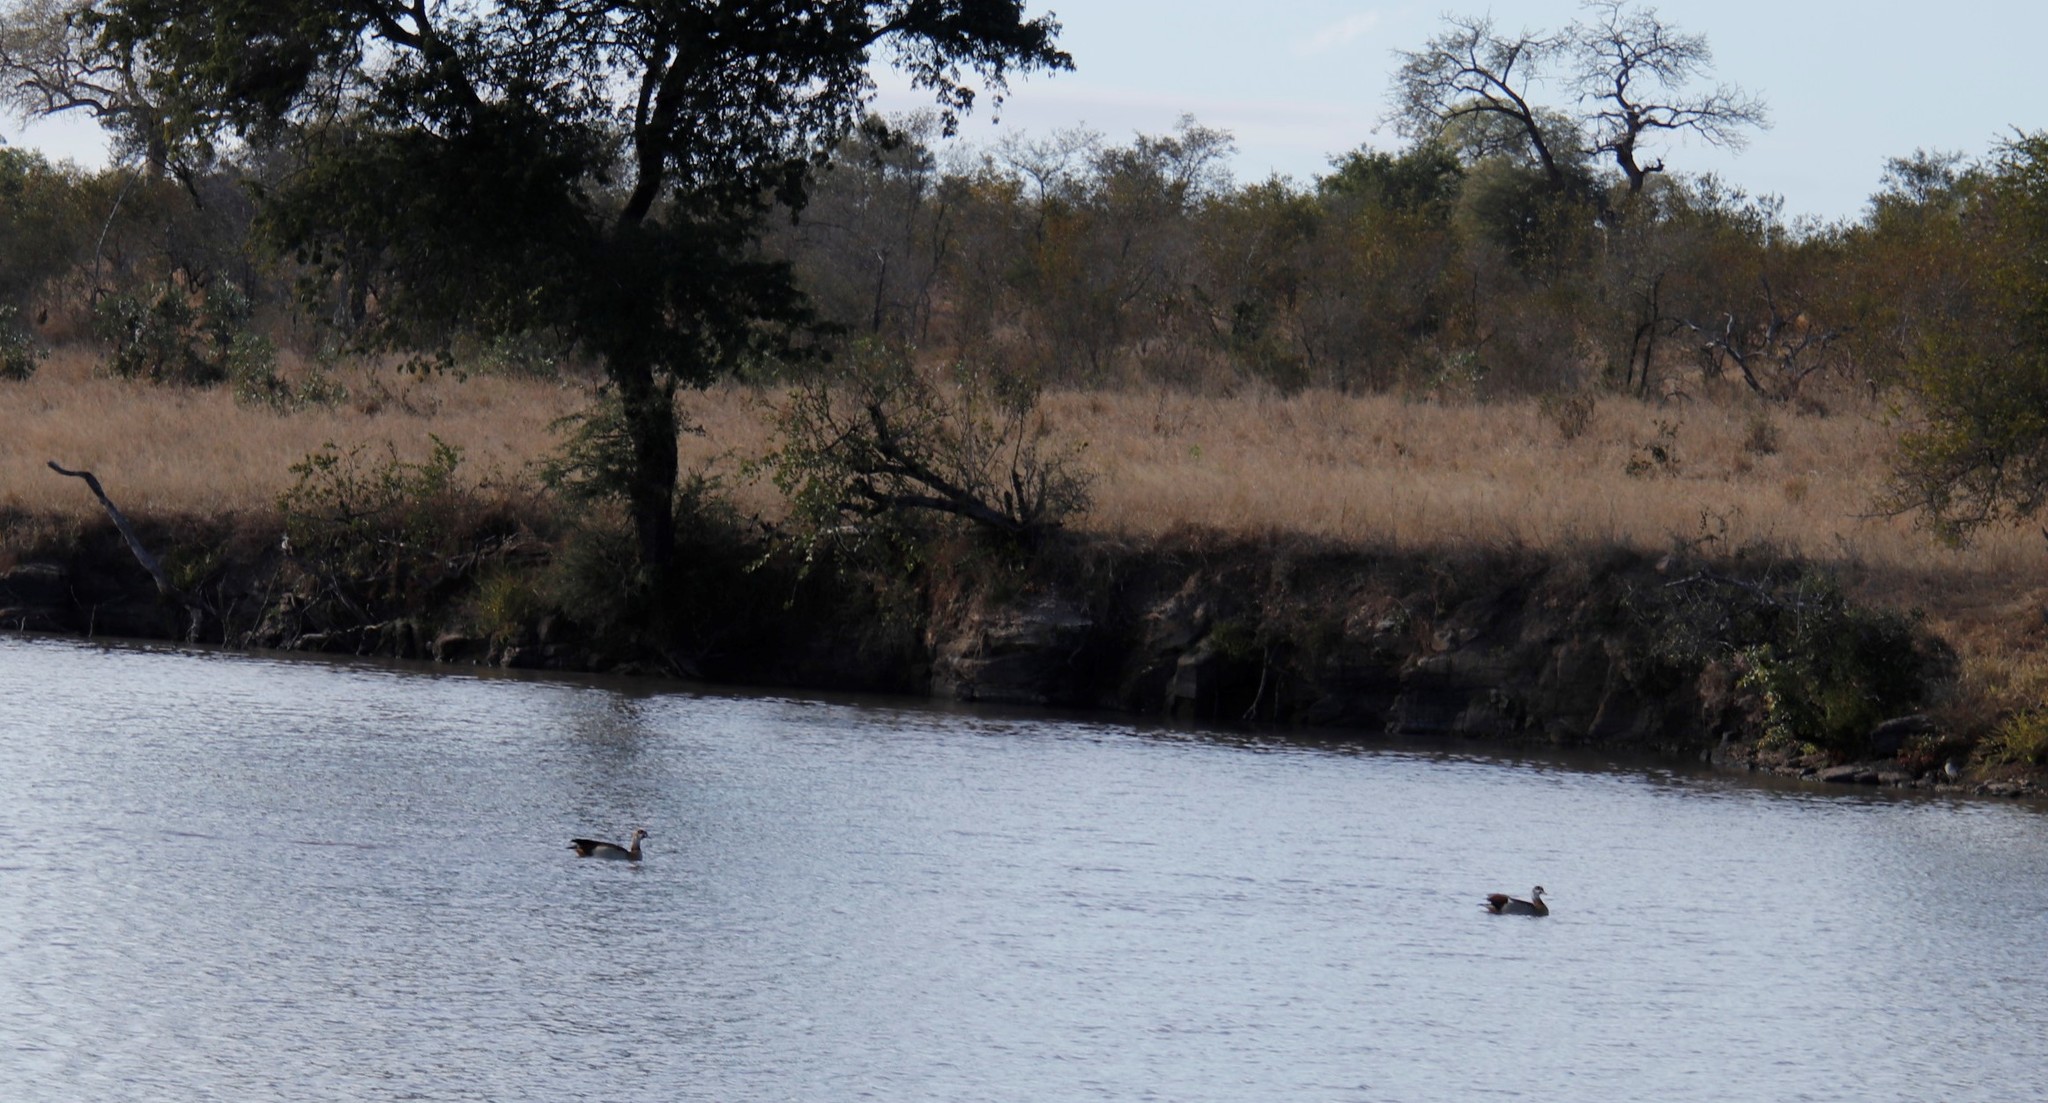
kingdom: Animalia
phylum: Chordata
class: Aves
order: Anseriformes
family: Anatidae
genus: Alopochen
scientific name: Alopochen aegyptiaca
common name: Egyptian goose
